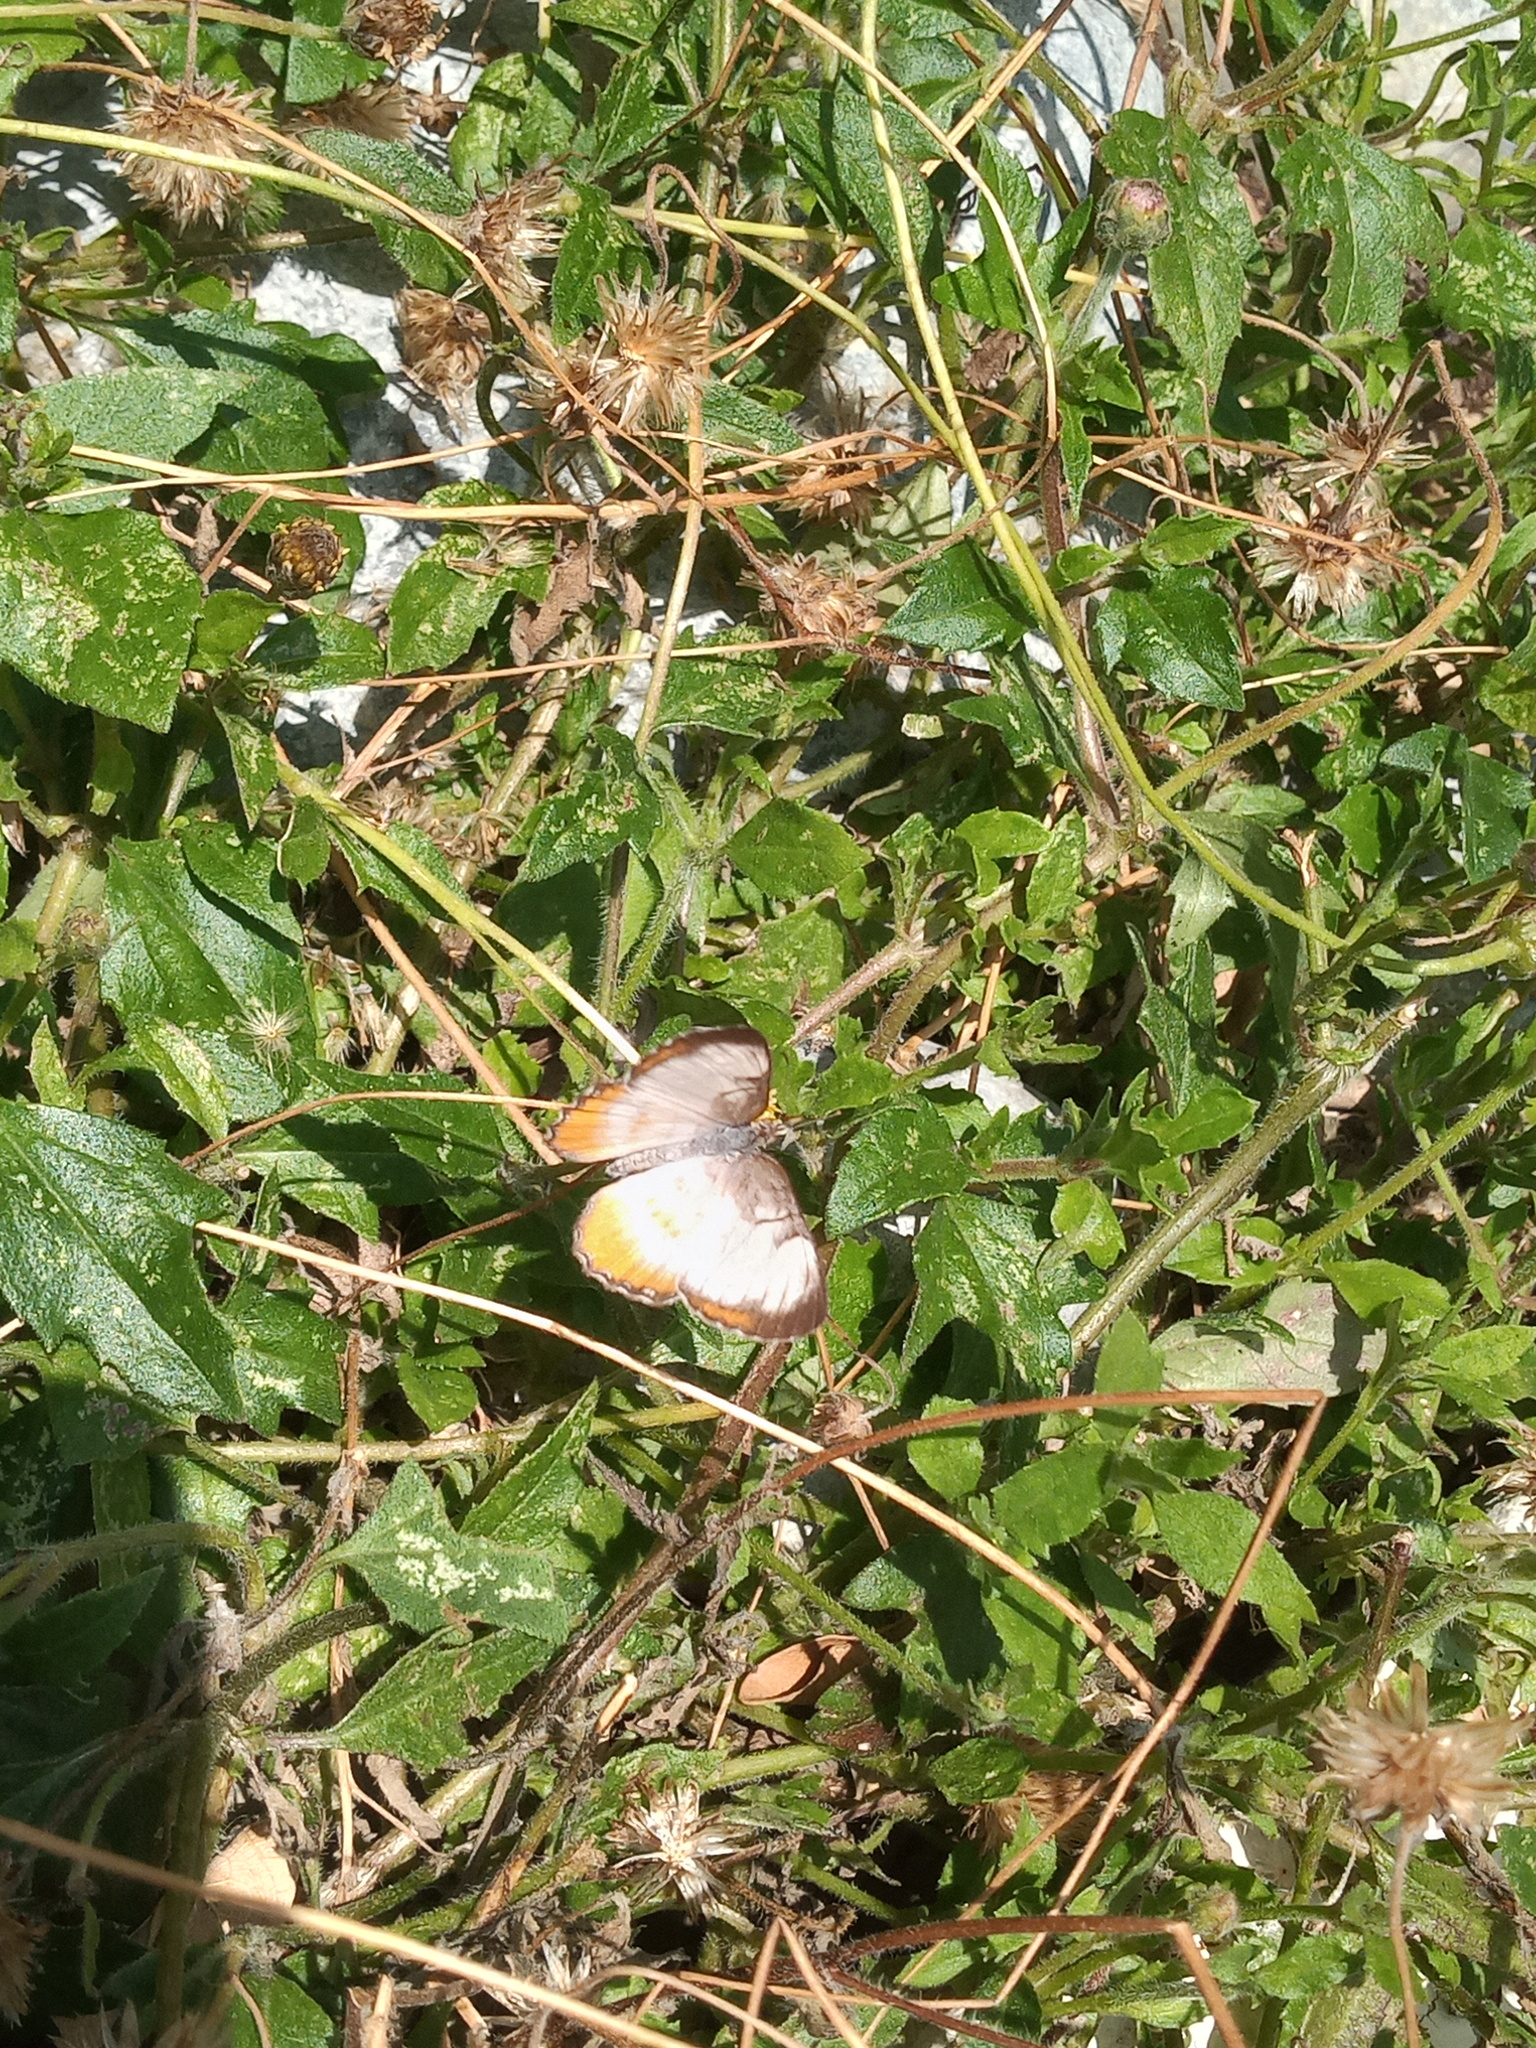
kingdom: Animalia
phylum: Arthropoda
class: Insecta
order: Lepidoptera
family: Nymphalidae
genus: Mestra
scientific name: Mestra amymone
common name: Common mestra
